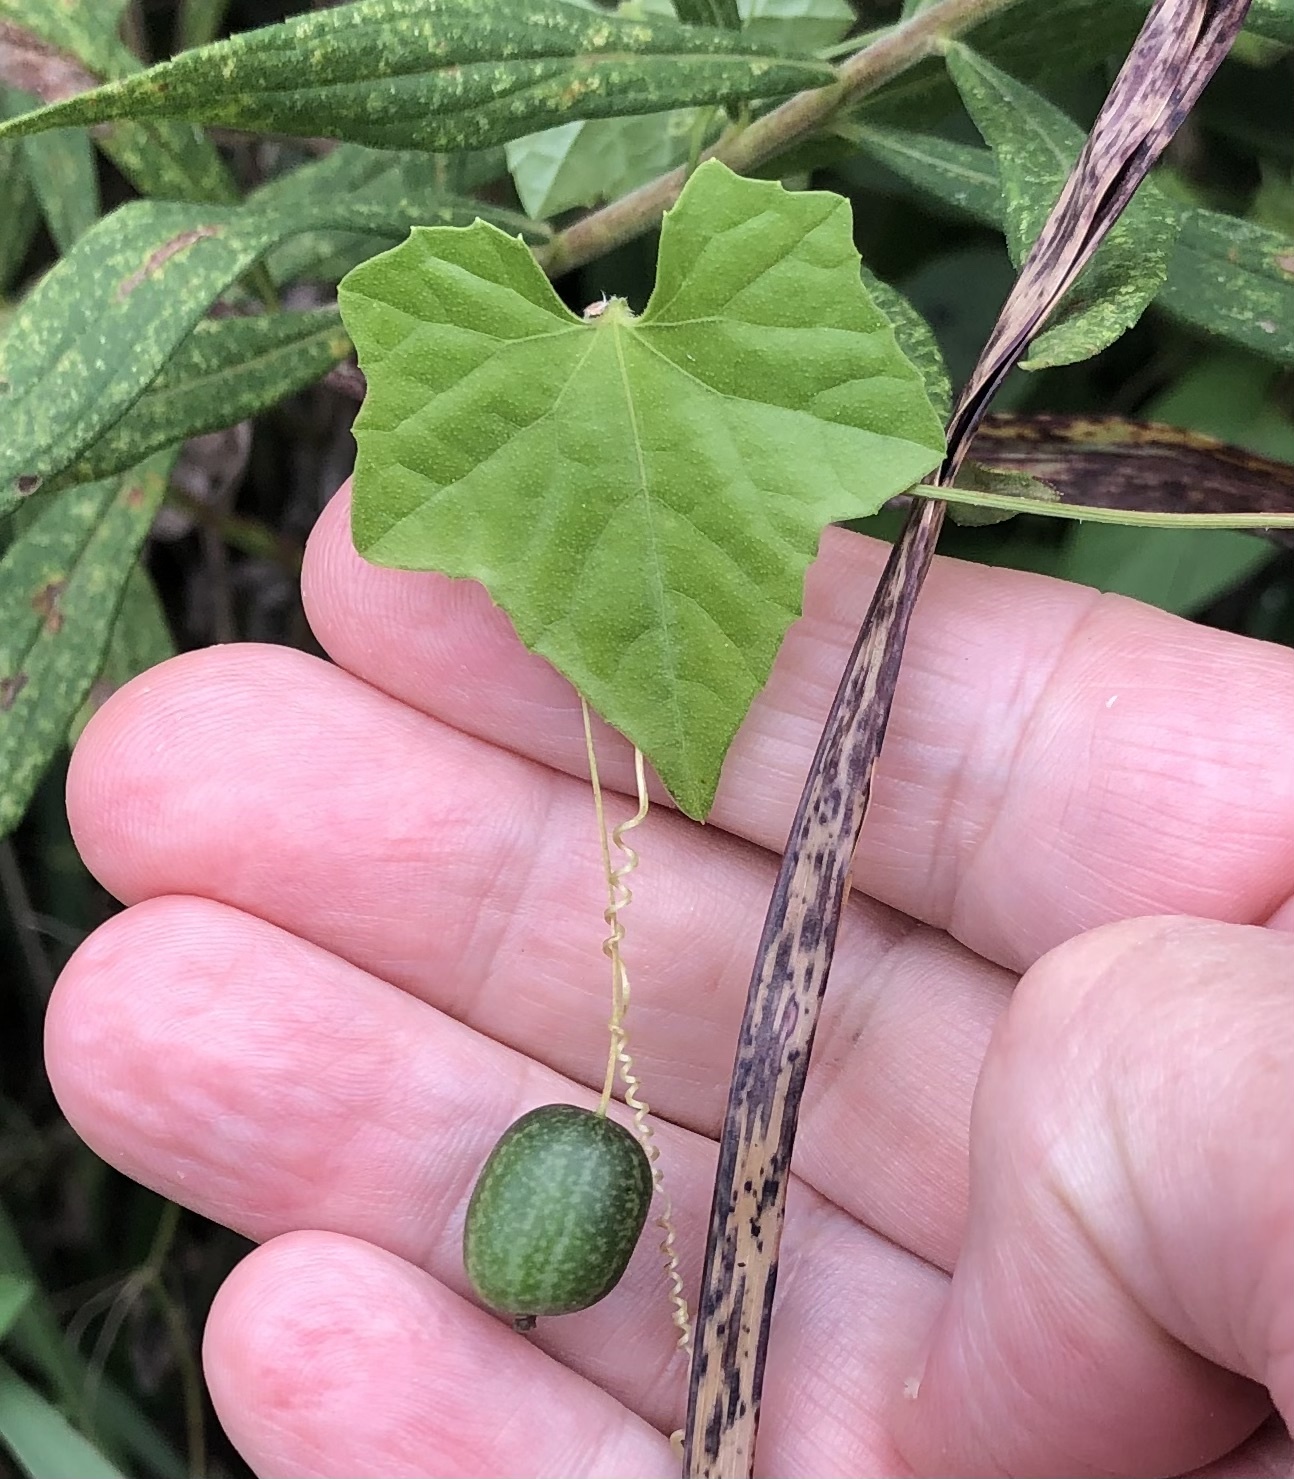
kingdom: Plantae
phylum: Tracheophyta
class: Magnoliopsida
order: Cucurbitales
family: Cucurbitaceae
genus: Melothria
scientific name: Melothria pendula
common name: Creeping-cucumber
